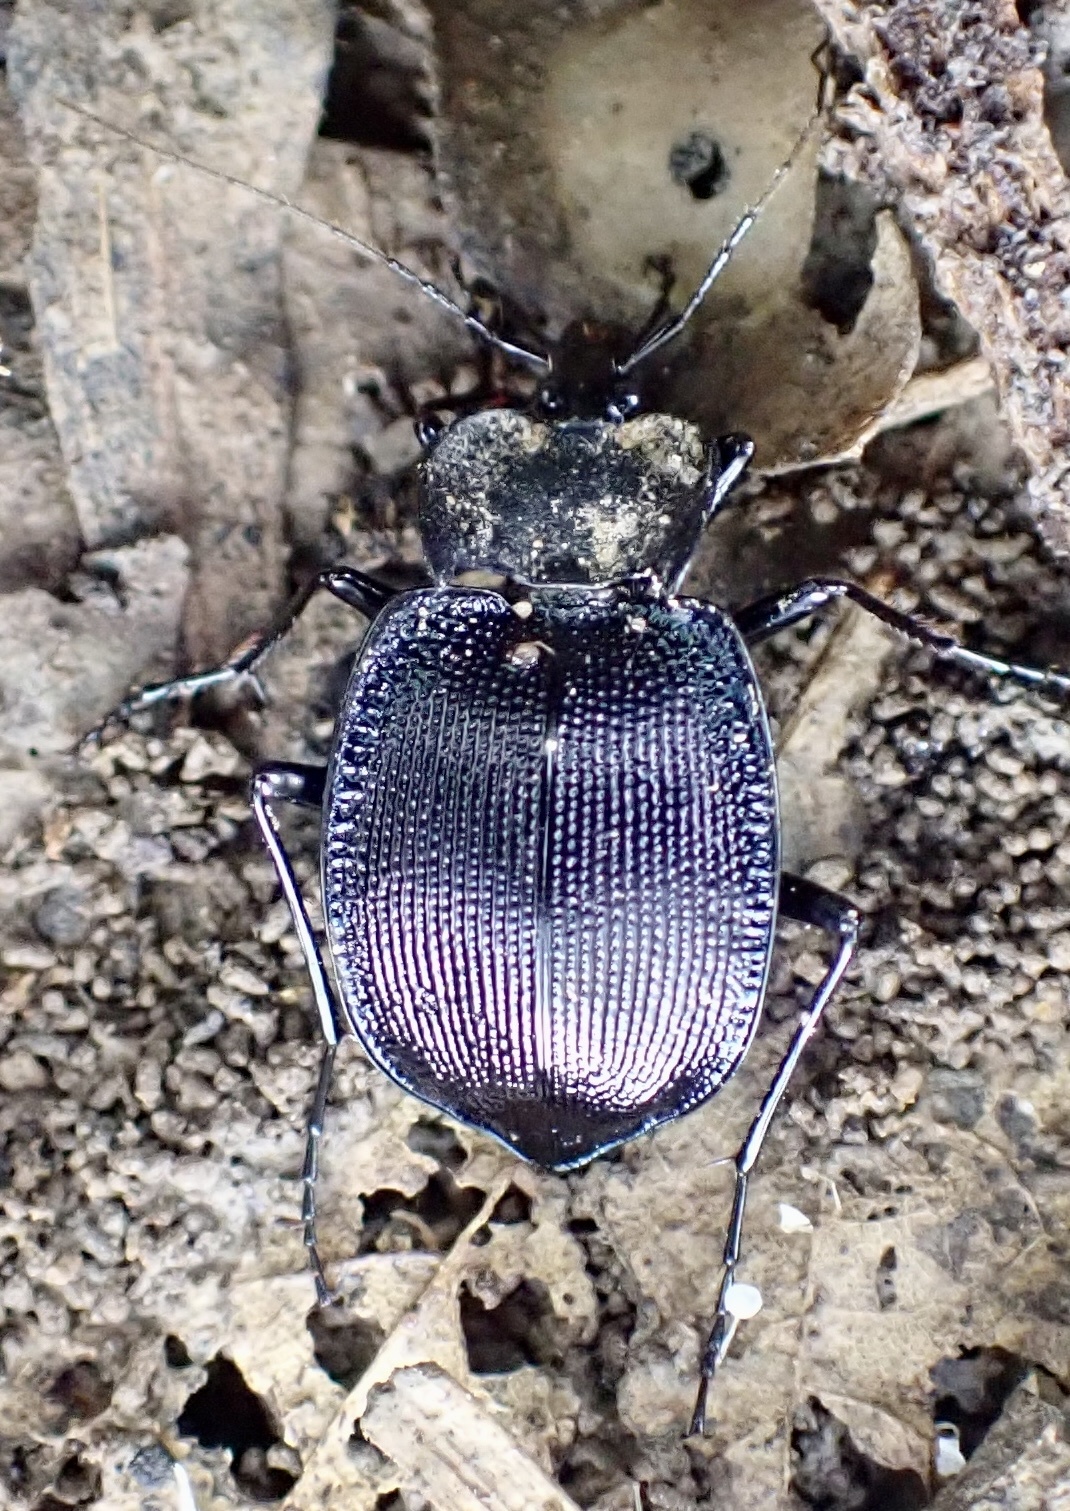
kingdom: Animalia
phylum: Arthropoda
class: Insecta
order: Coleoptera
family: Carabidae
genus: Scaphinotus
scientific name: Scaphinotus unicolor
